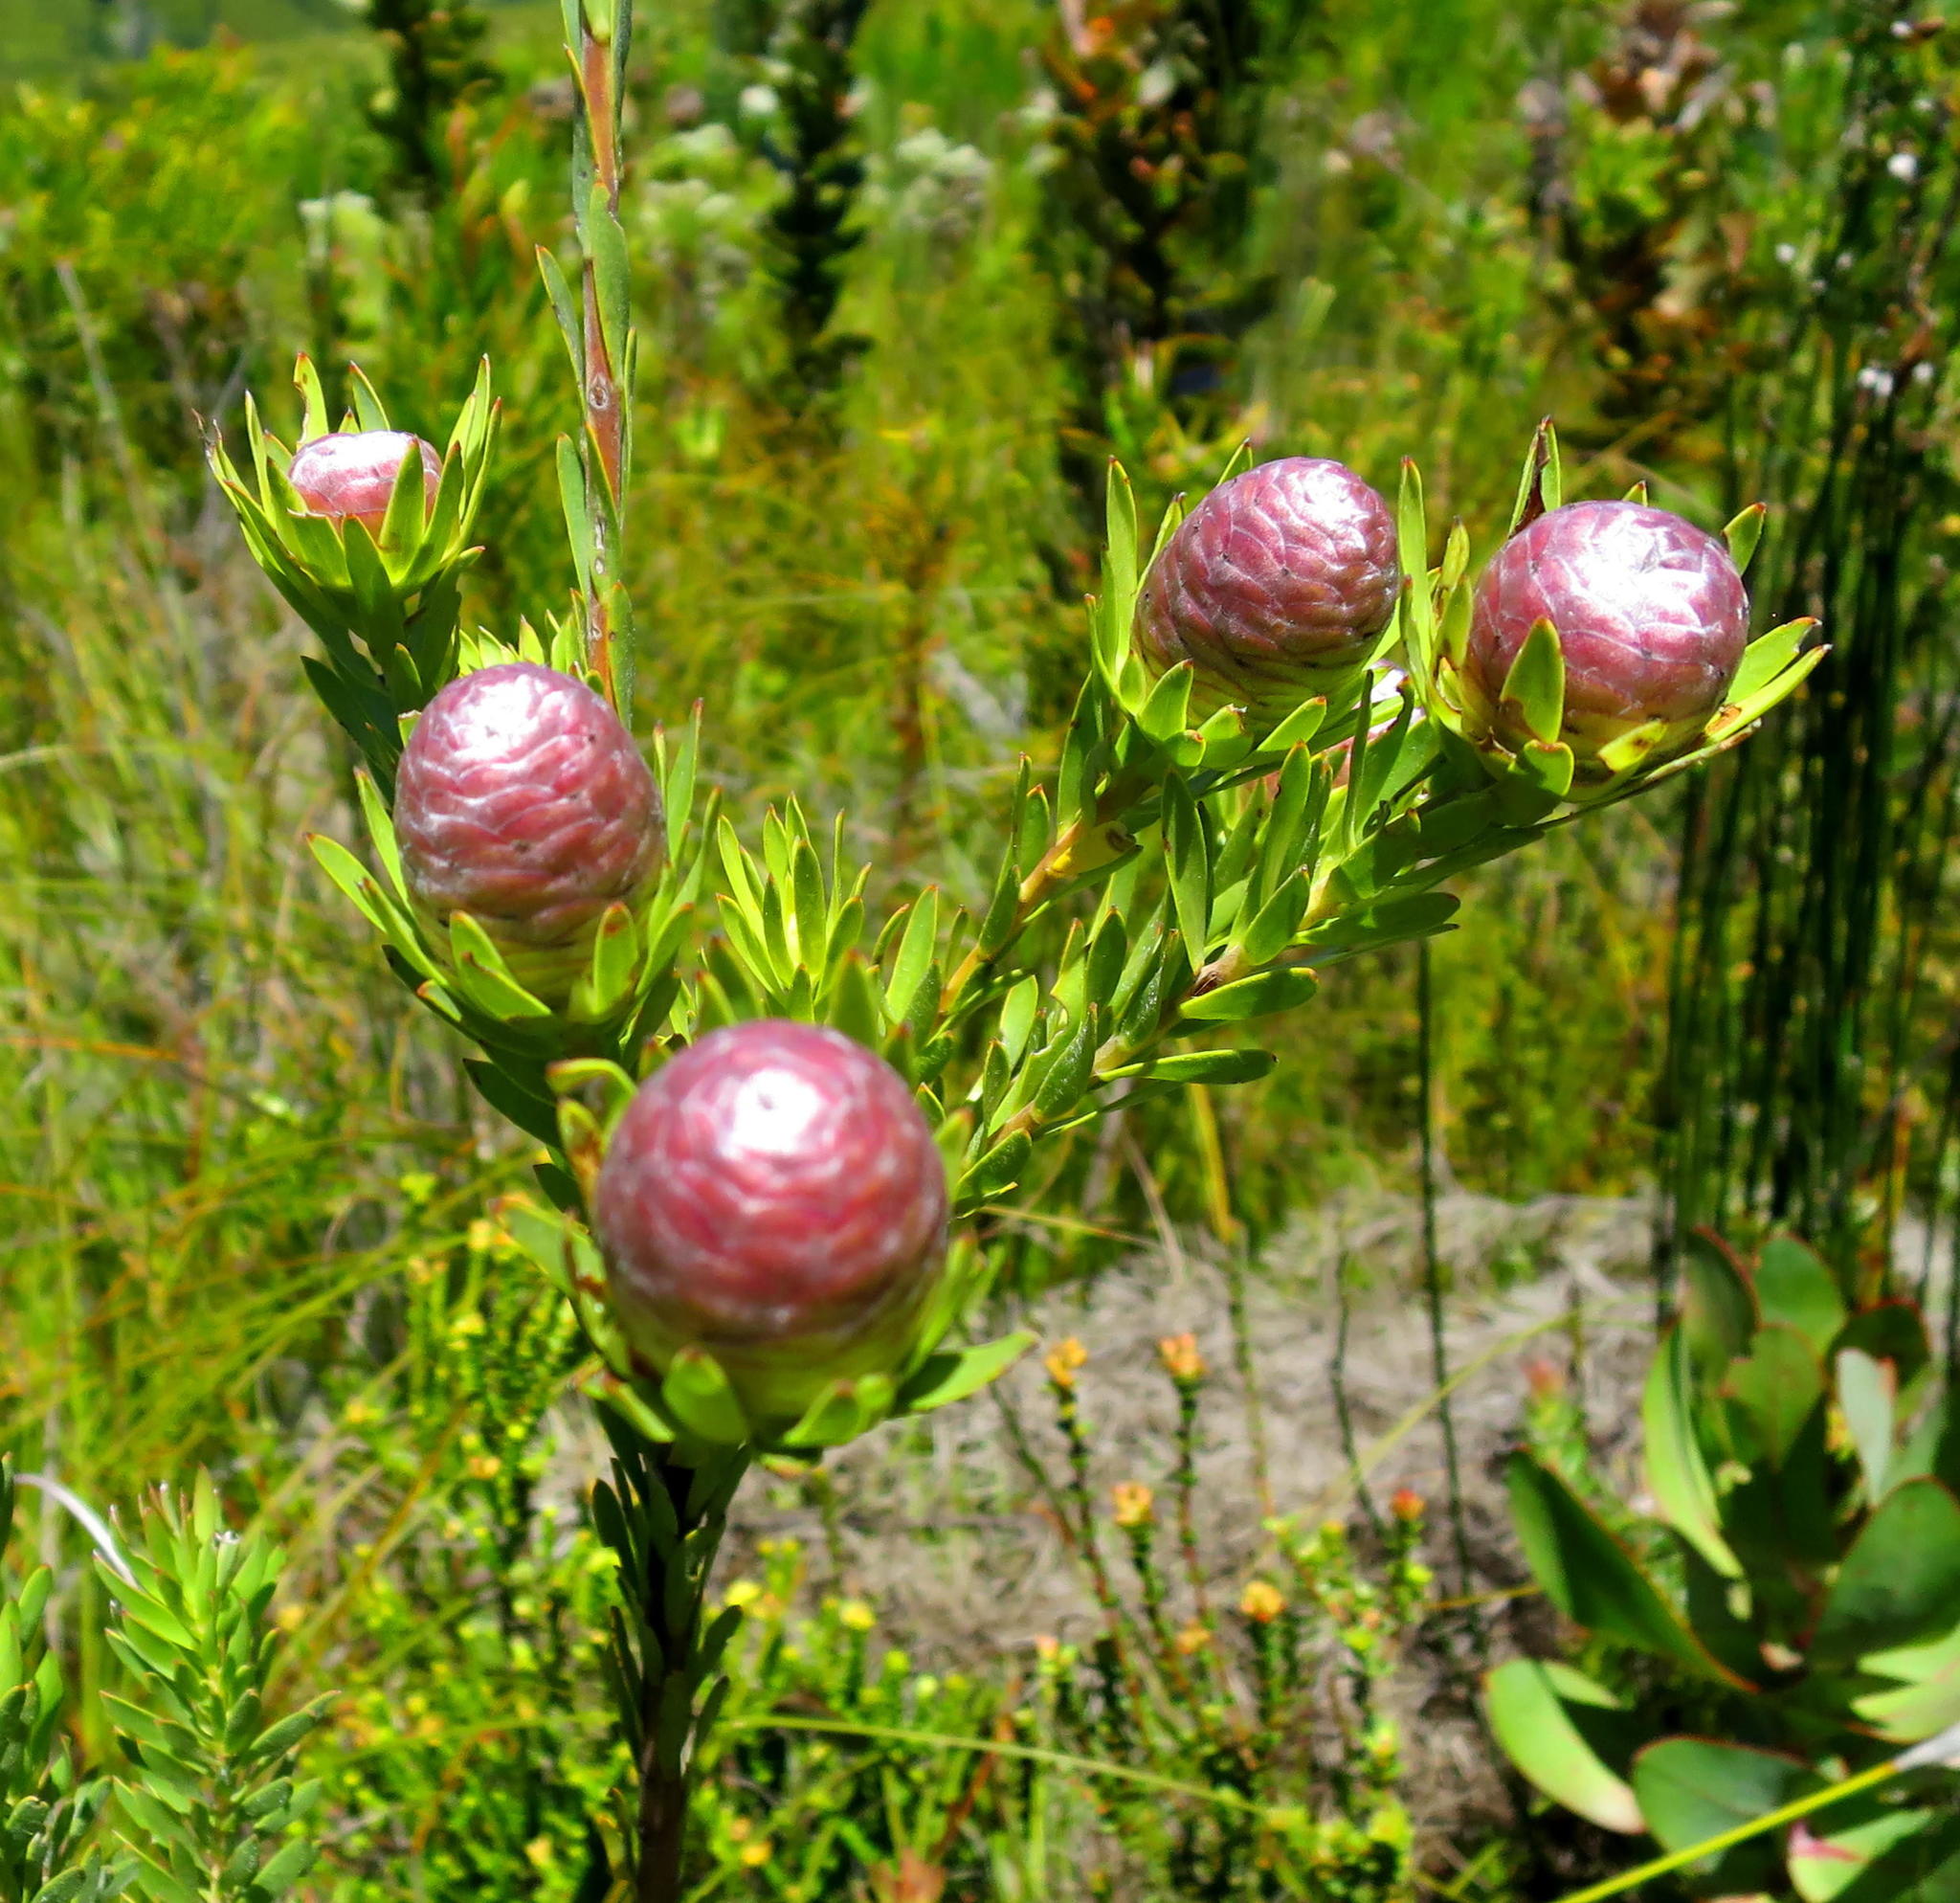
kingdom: Plantae
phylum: Tracheophyta
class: Magnoliopsida
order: Proteales
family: Proteaceae
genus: Leucadendron
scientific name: Leucadendron uliginosum
